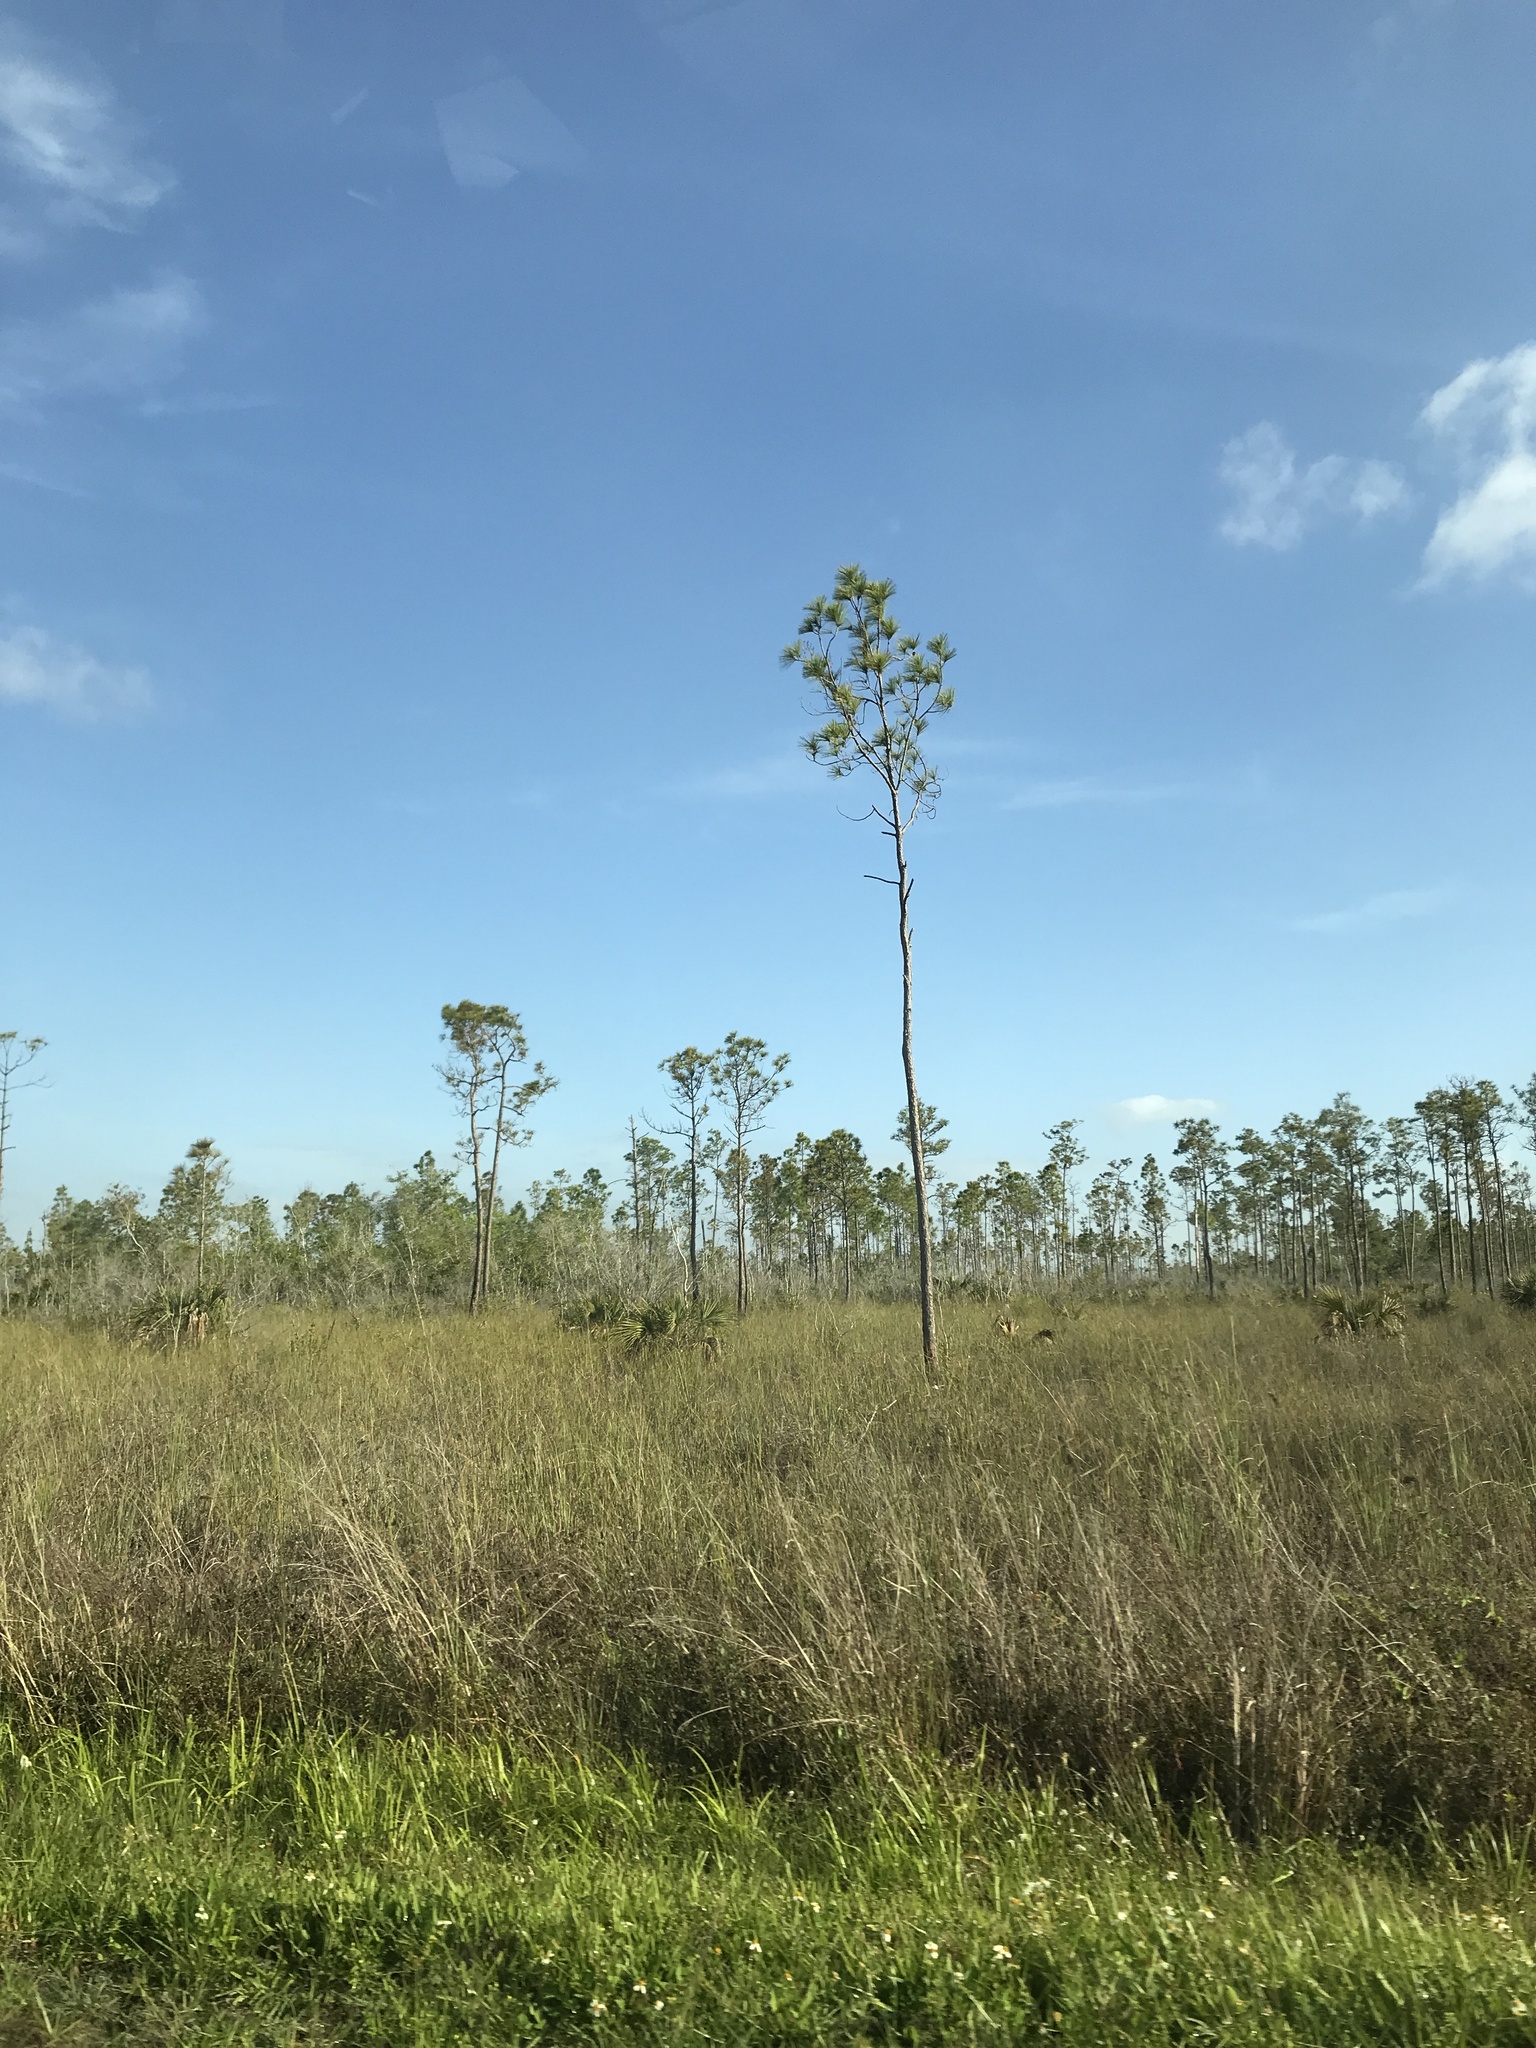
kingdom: Plantae
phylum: Tracheophyta
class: Pinopsida
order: Pinales
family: Pinaceae
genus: Pinus
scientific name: Pinus elliottii
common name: Slash pine
